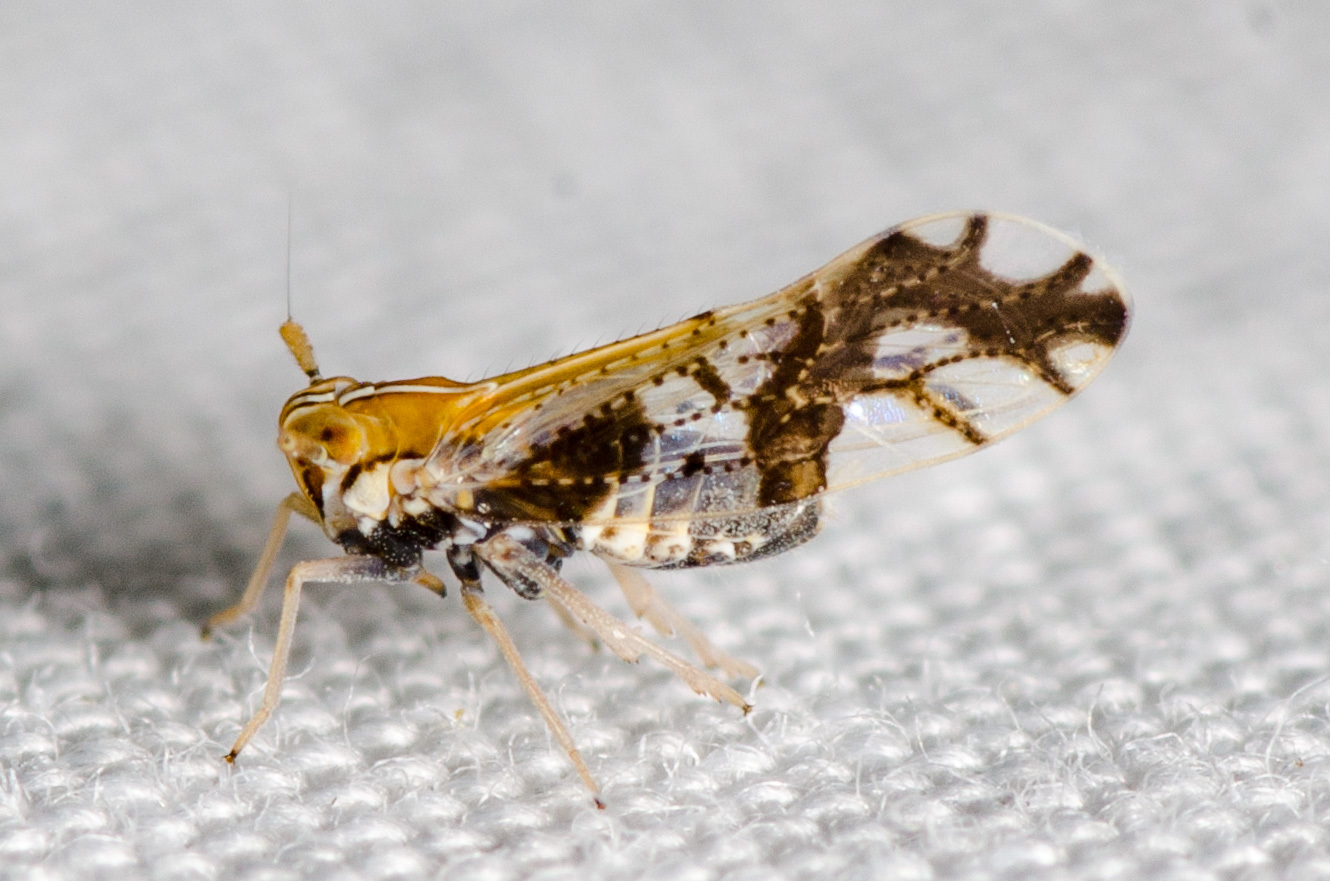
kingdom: Animalia
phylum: Arthropoda
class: Insecta
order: Hemiptera
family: Delphacidae
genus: Liburniella
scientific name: Liburniella ornata
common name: Ornate planthopper
